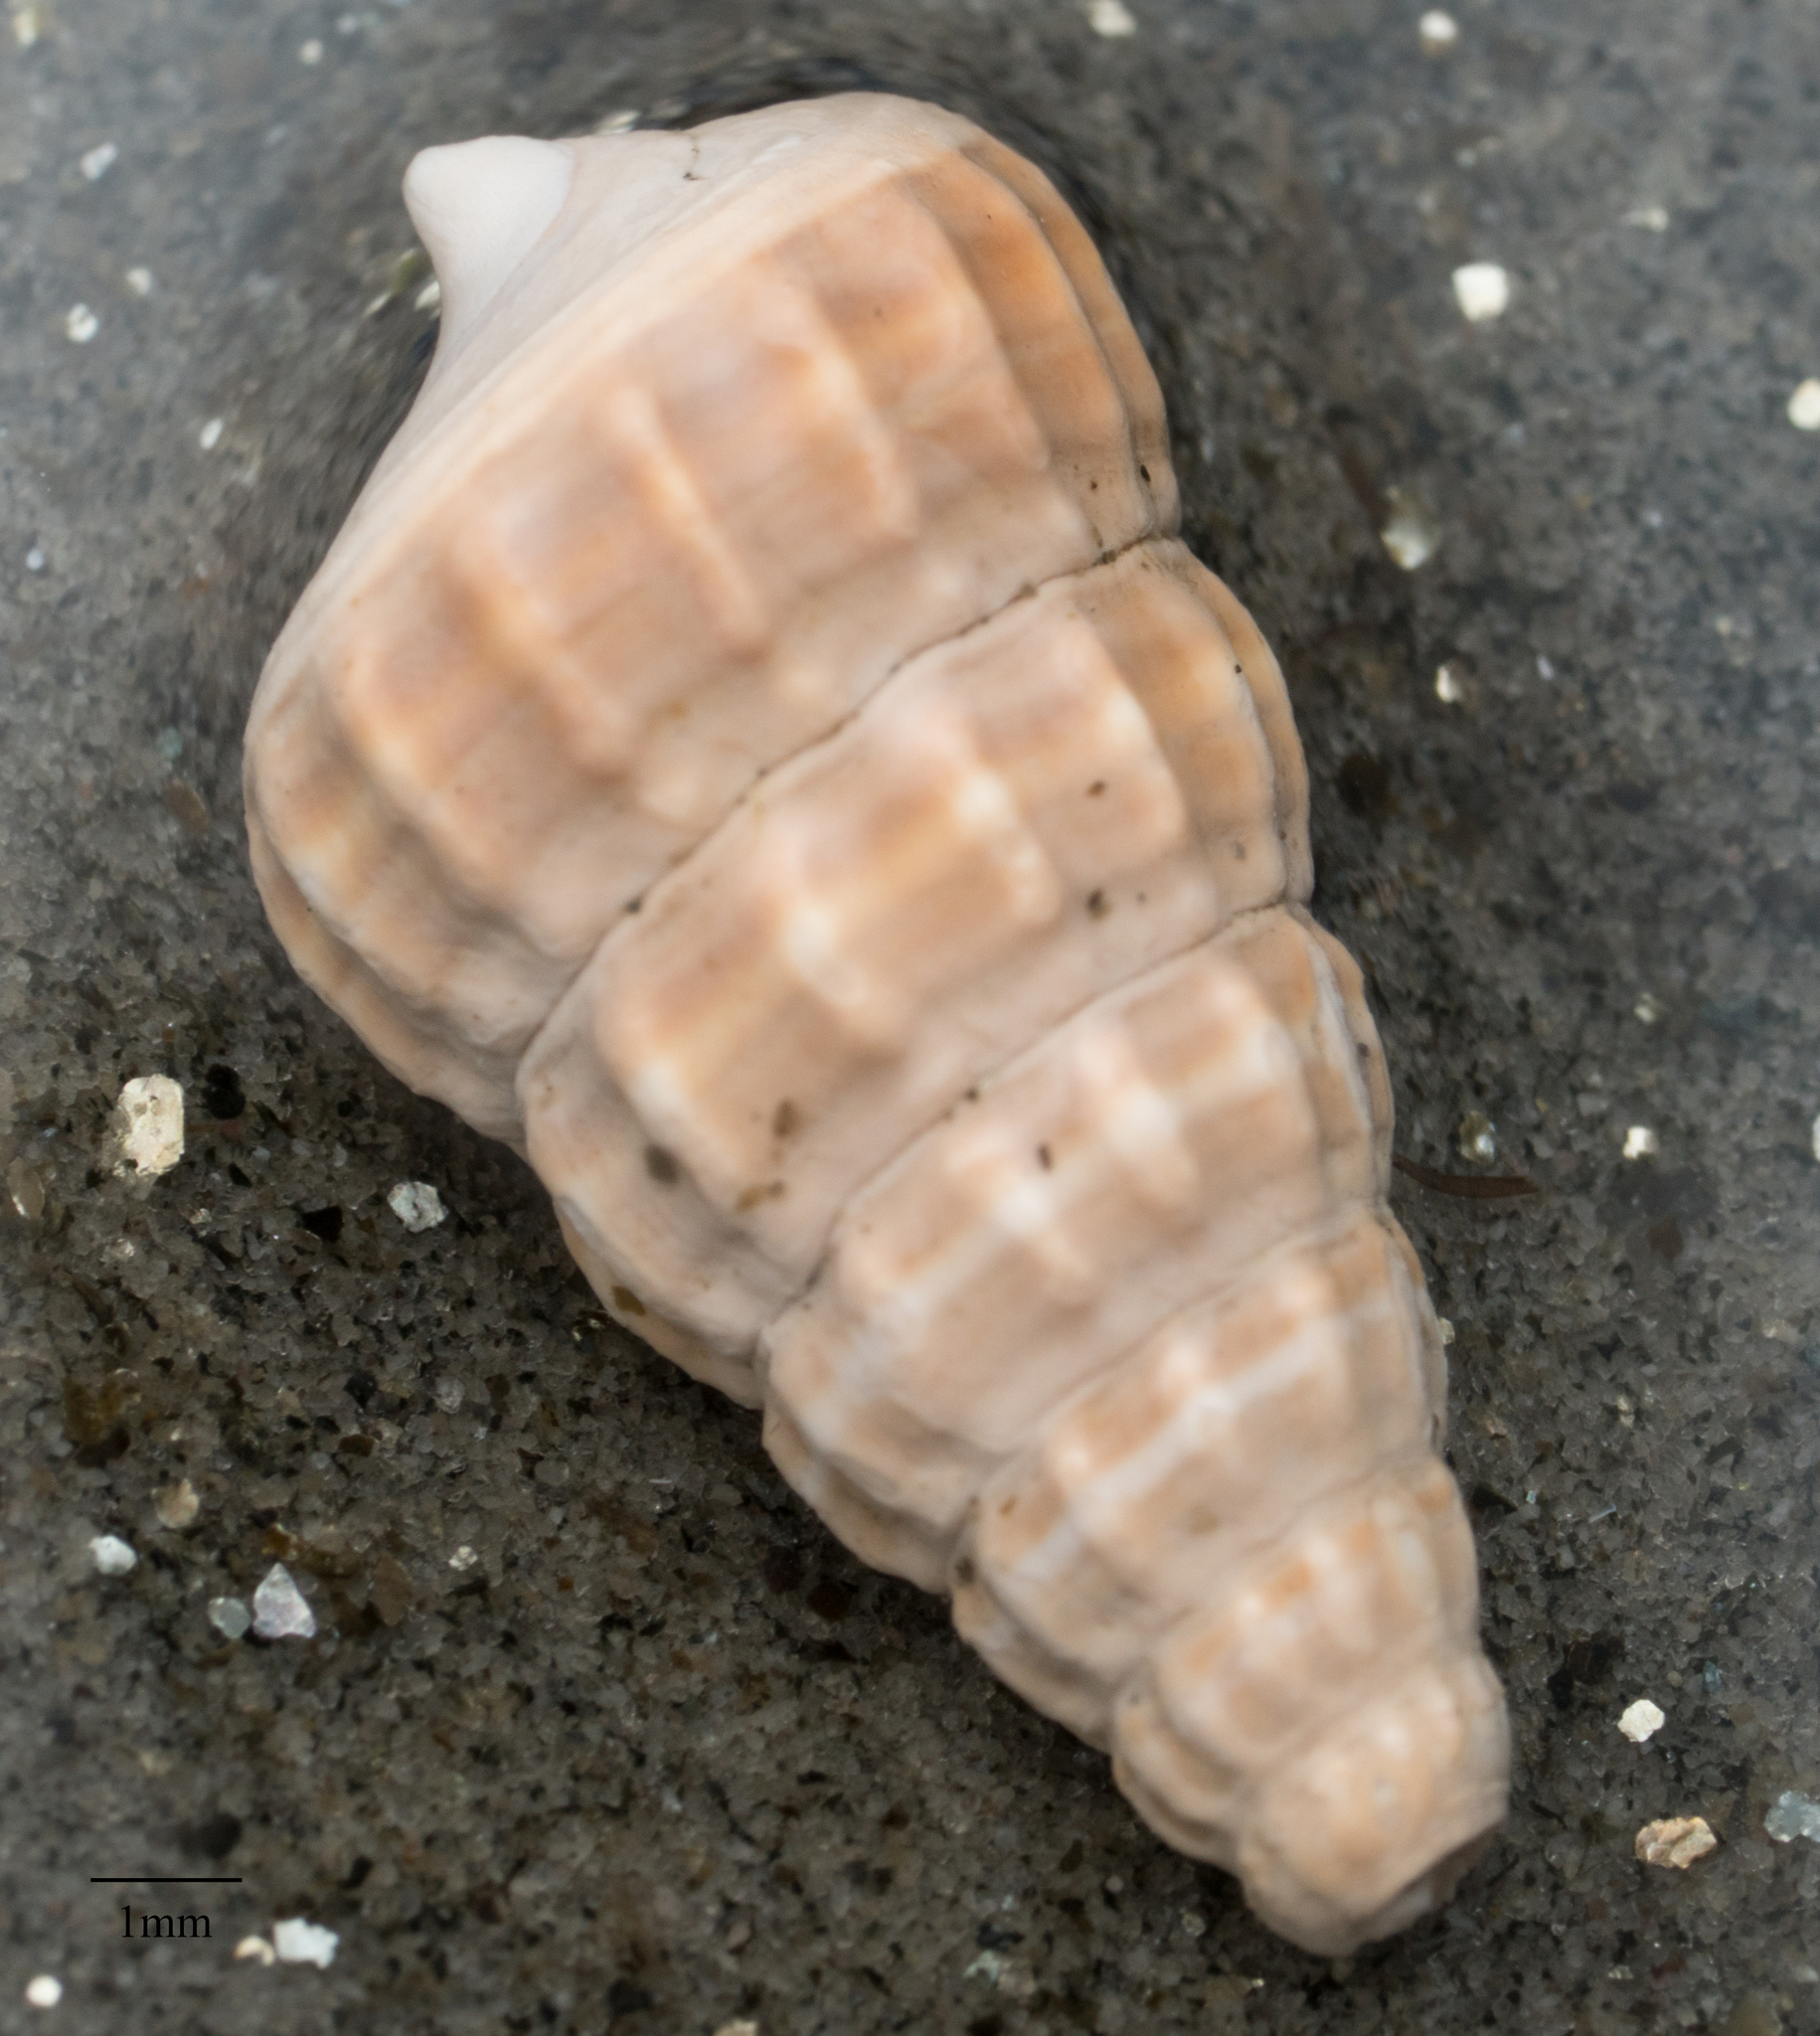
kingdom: Animalia
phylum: Mollusca
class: Gastropoda
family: Potamididae
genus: Cerithideopsis
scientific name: Cerithideopsis californica
